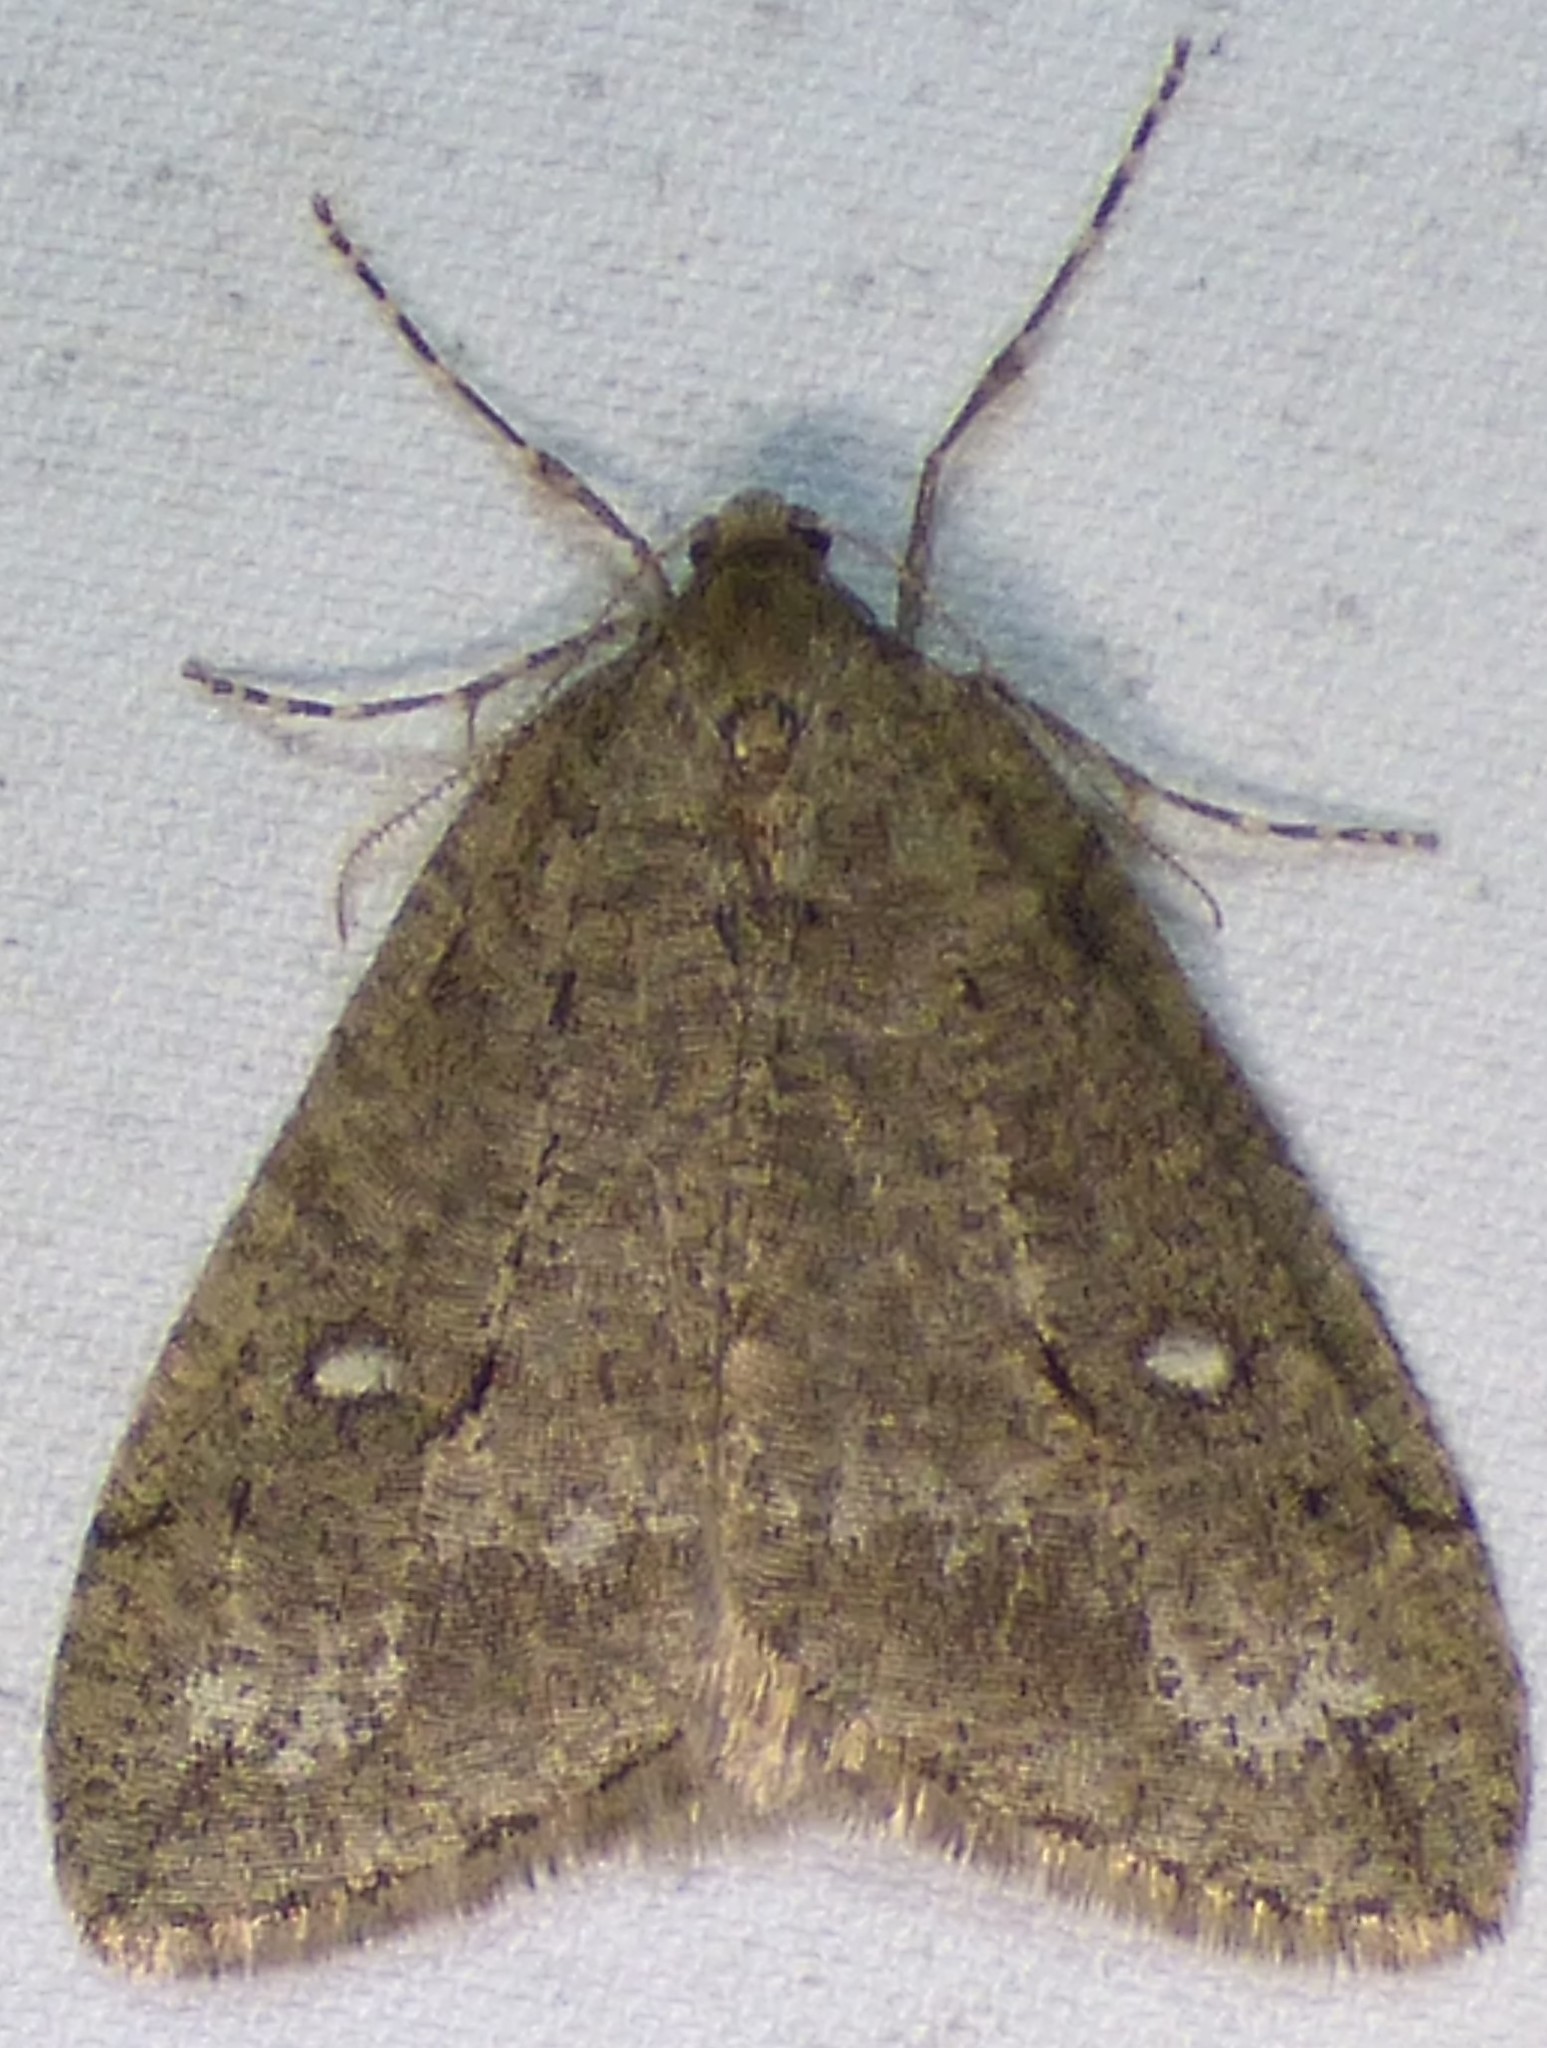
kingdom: Animalia
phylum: Arthropoda
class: Insecta
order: Lepidoptera
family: Geometridae
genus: Paleacrita
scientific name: Paleacrita merriccata
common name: White-spotted canker worm
